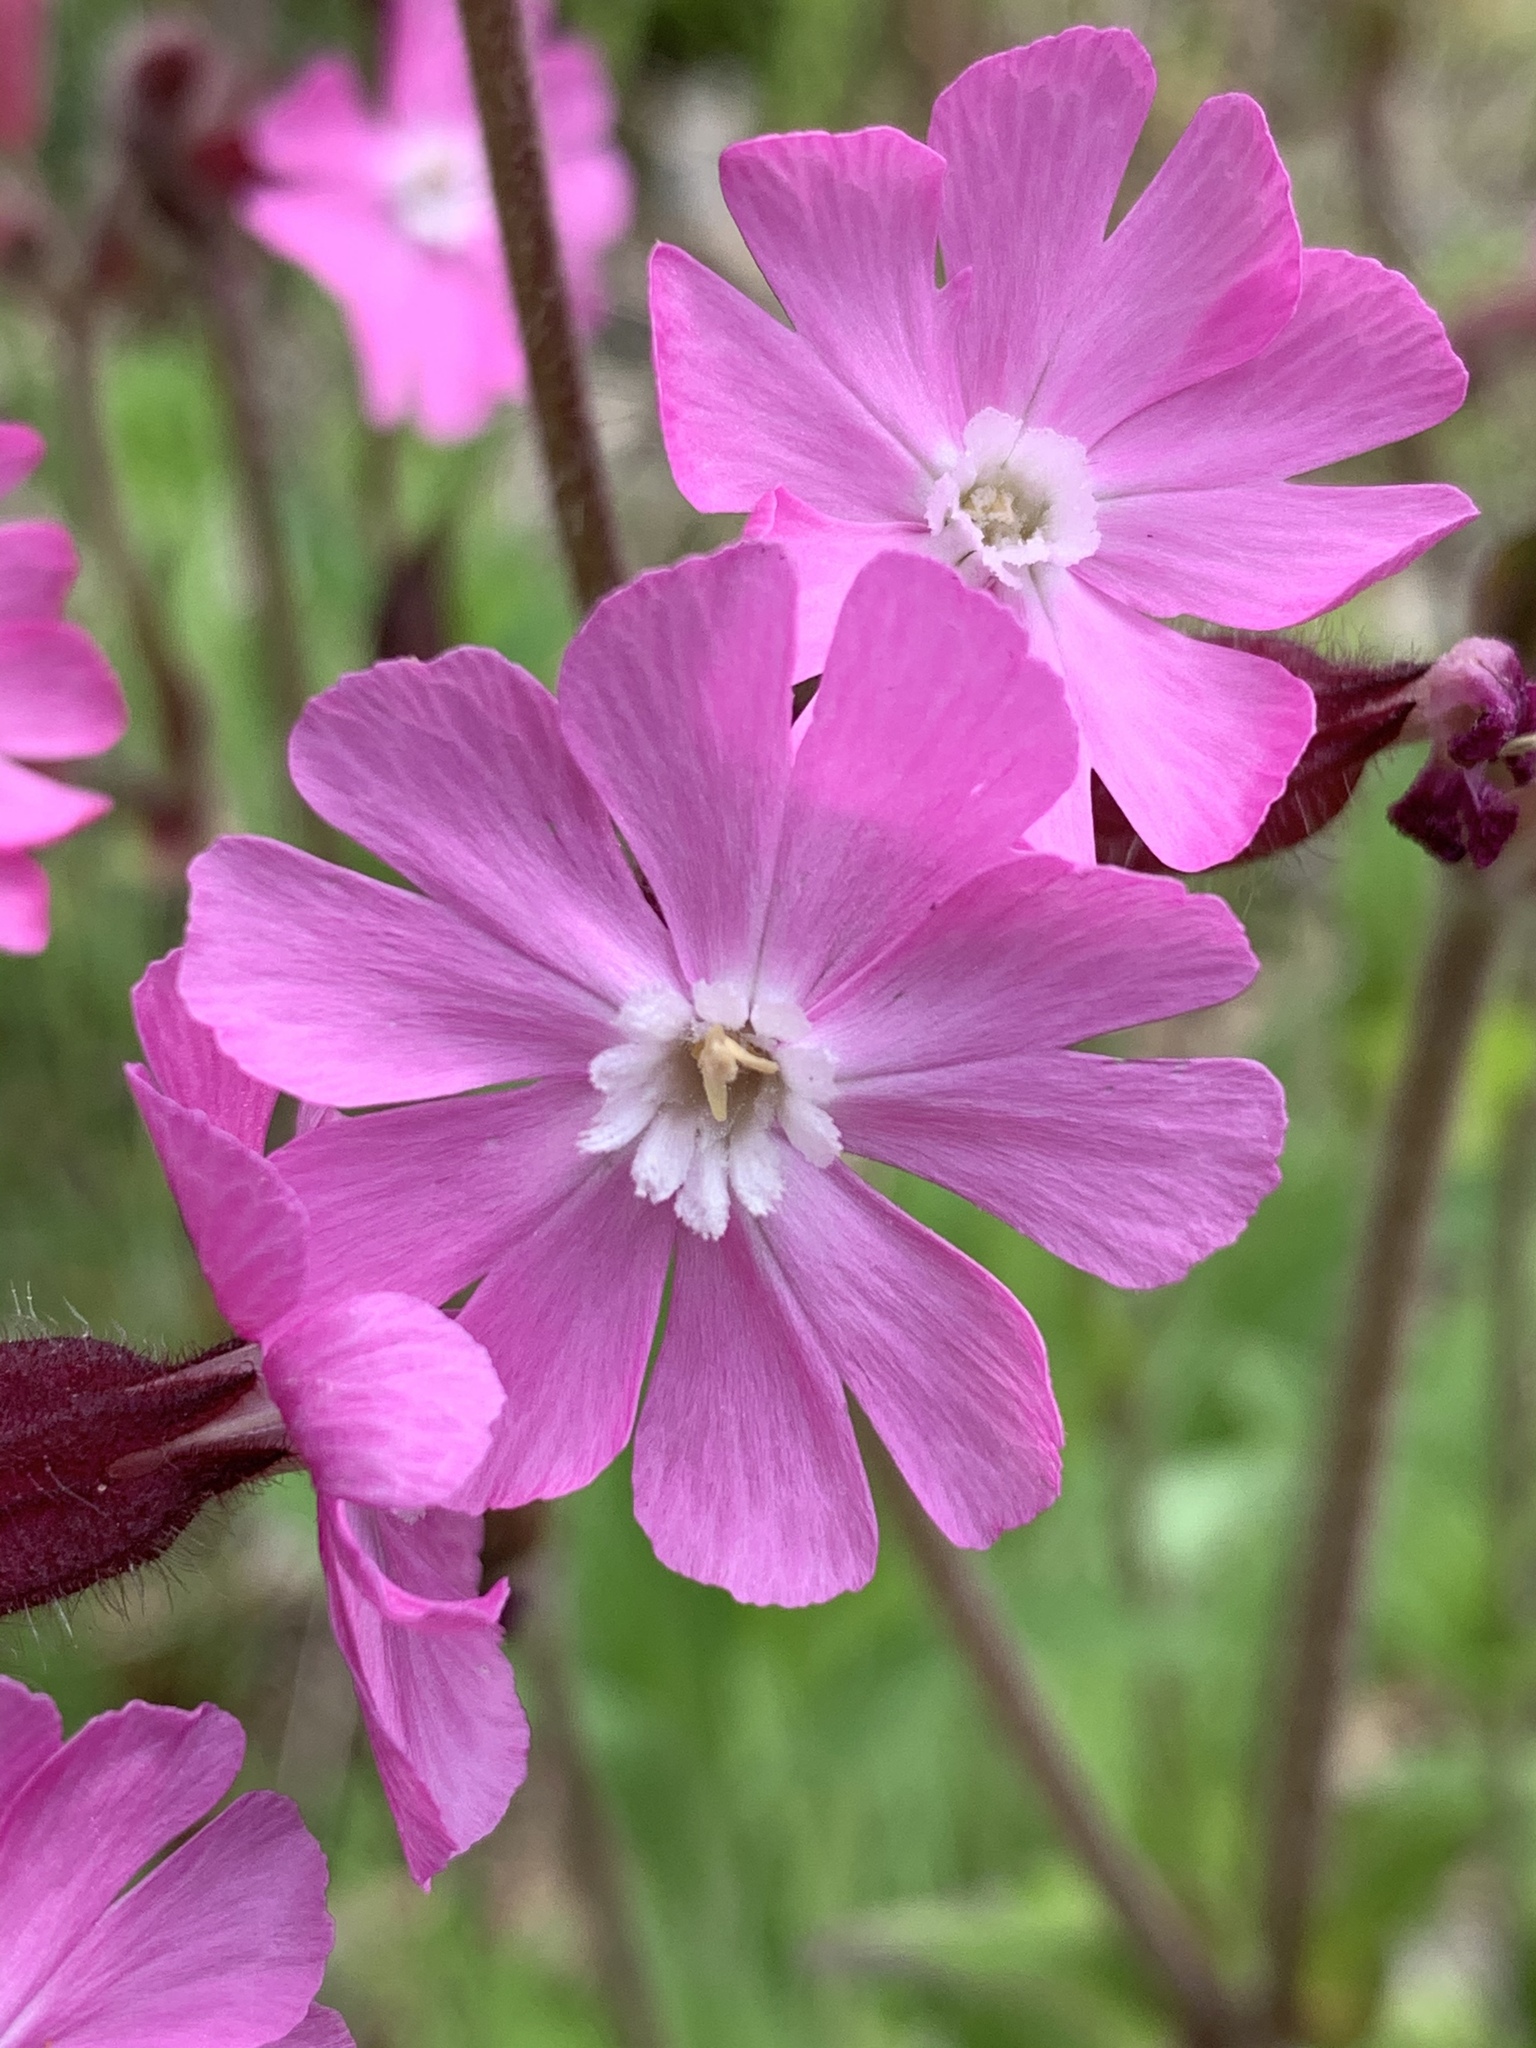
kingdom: Plantae
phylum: Tracheophyta
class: Magnoliopsida
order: Caryophyllales
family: Caryophyllaceae
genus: Silene
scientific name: Silene dioica
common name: Red campion
